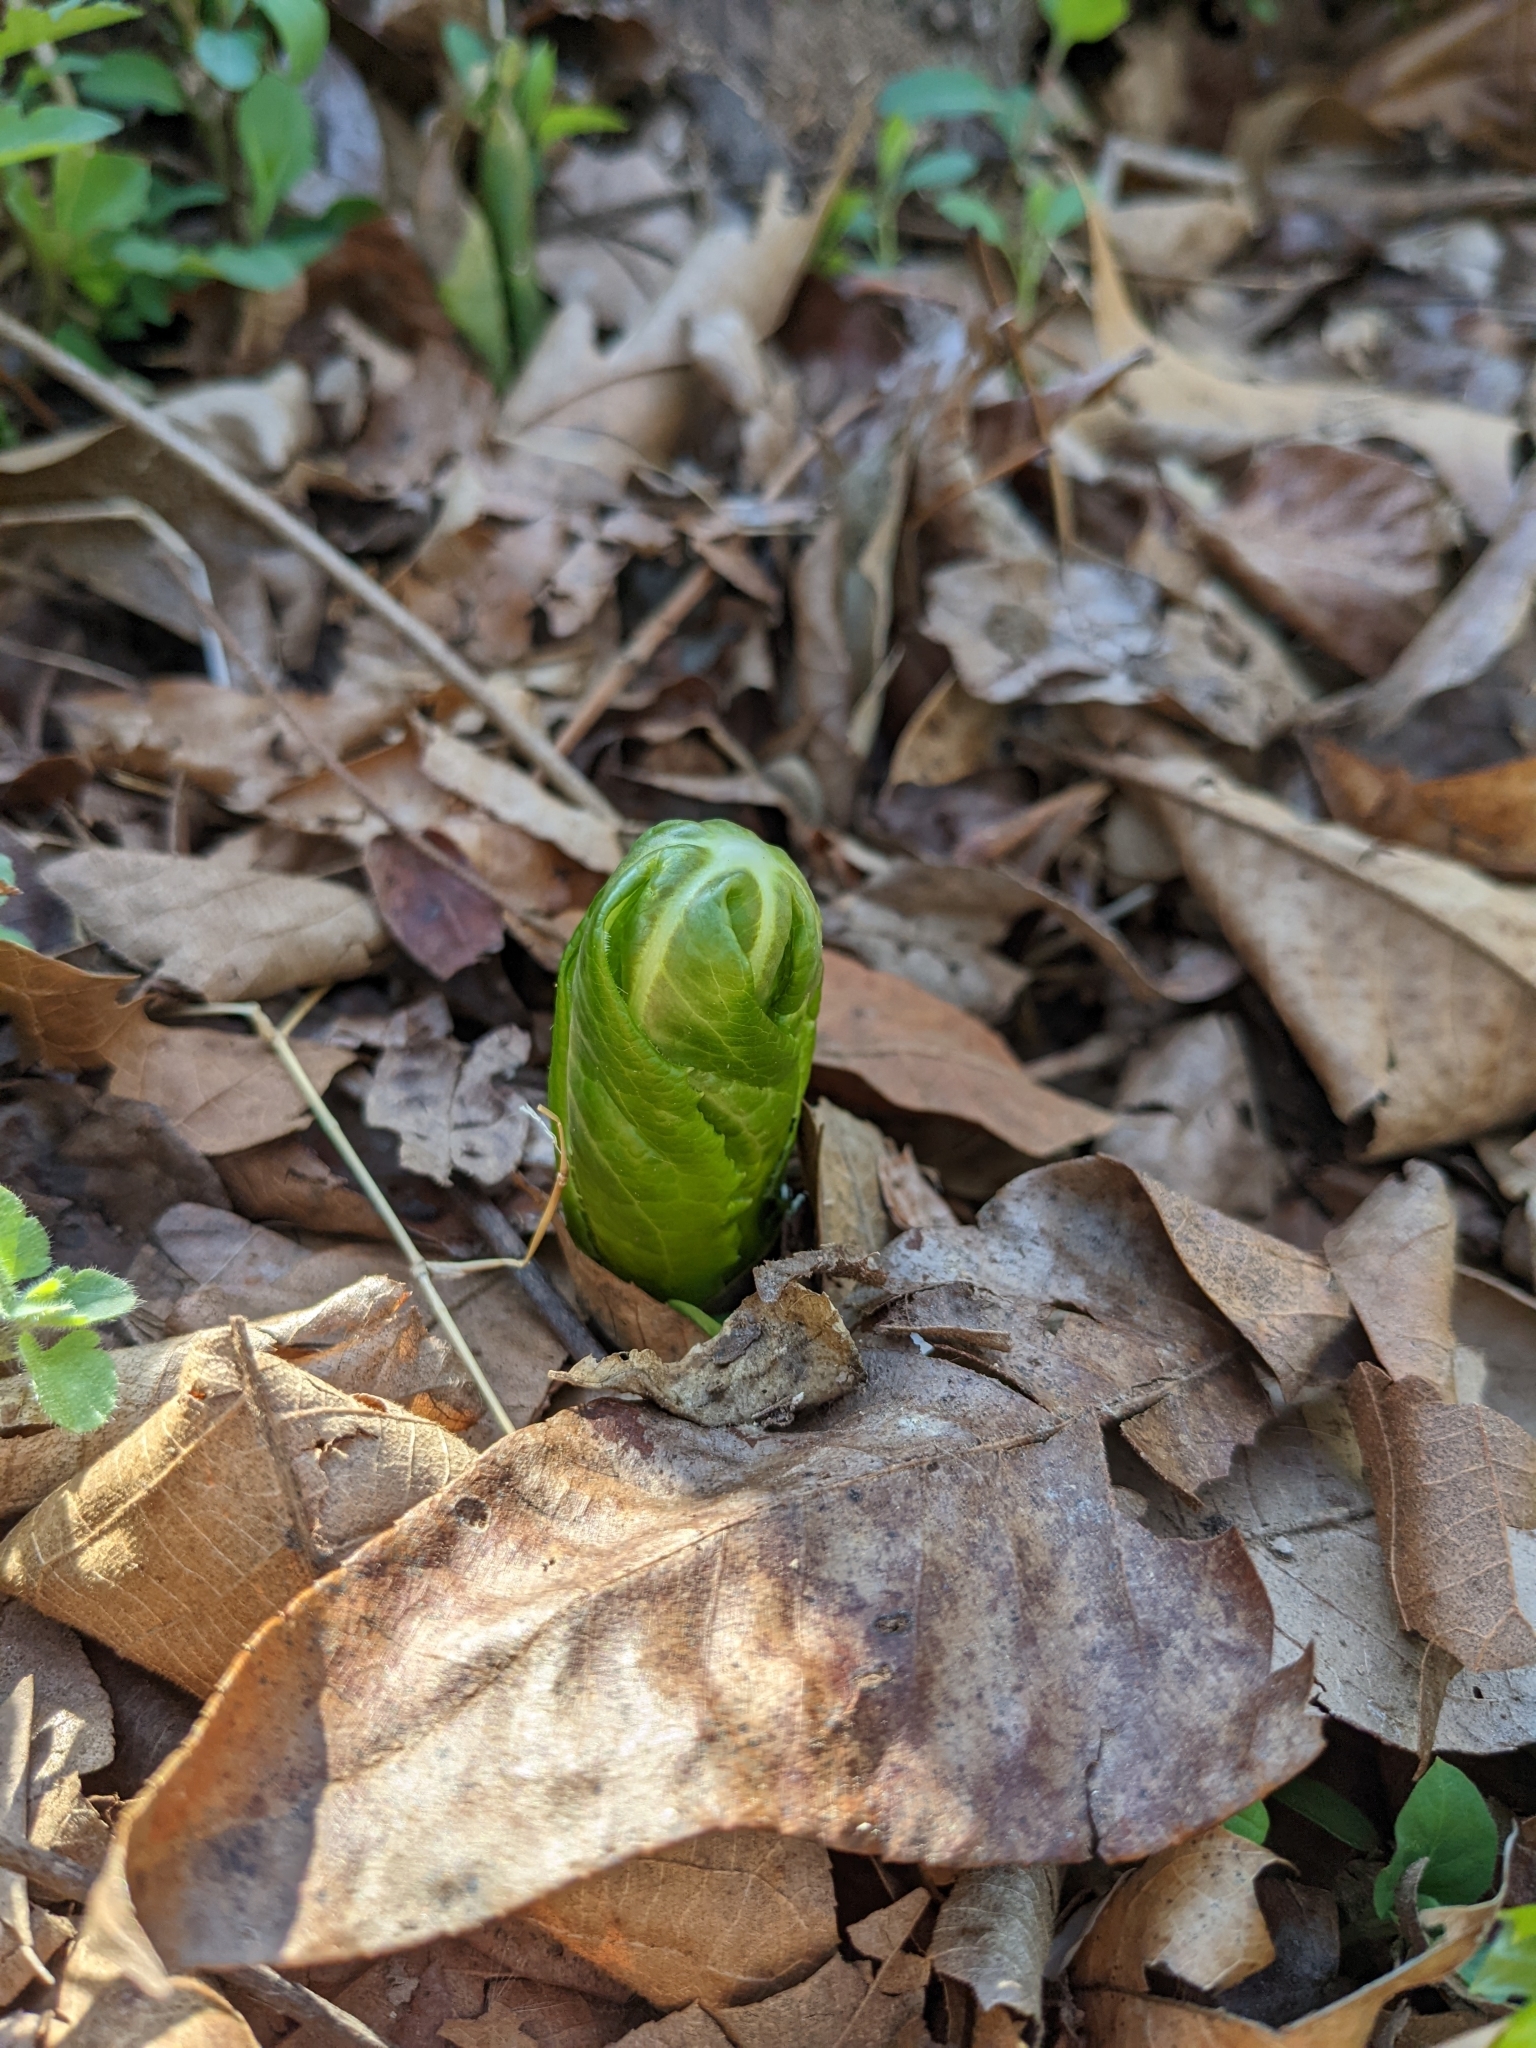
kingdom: Plantae
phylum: Tracheophyta
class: Magnoliopsida
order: Ranunculales
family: Berberidaceae
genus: Podophyllum
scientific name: Podophyllum peltatum
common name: Wild mandrake
